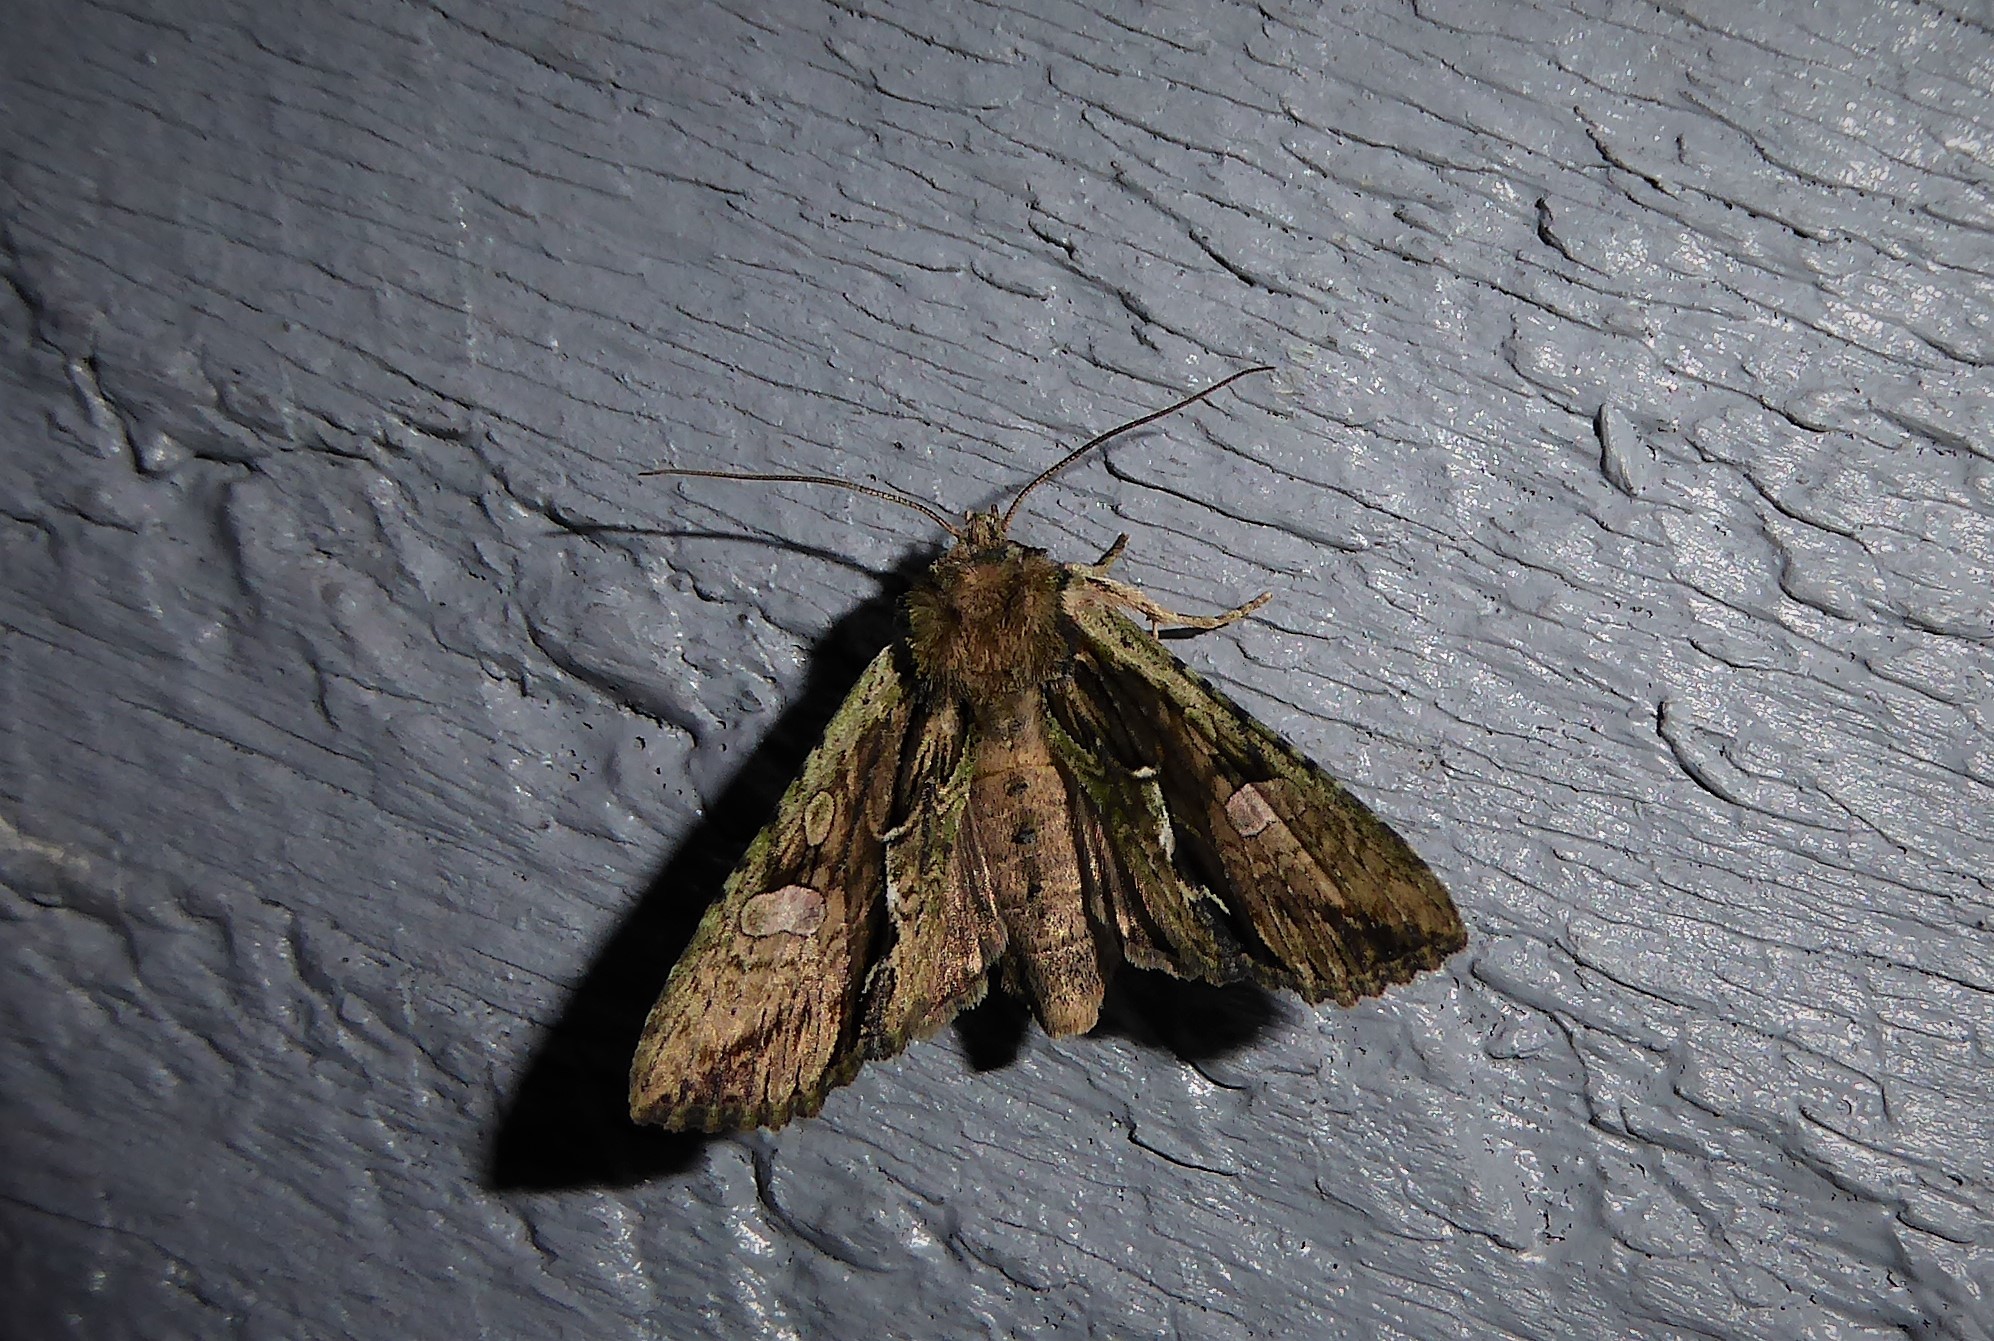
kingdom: Animalia
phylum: Arthropoda
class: Insecta
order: Lepidoptera
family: Noctuidae
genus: Meterana
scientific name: Meterana decorata
